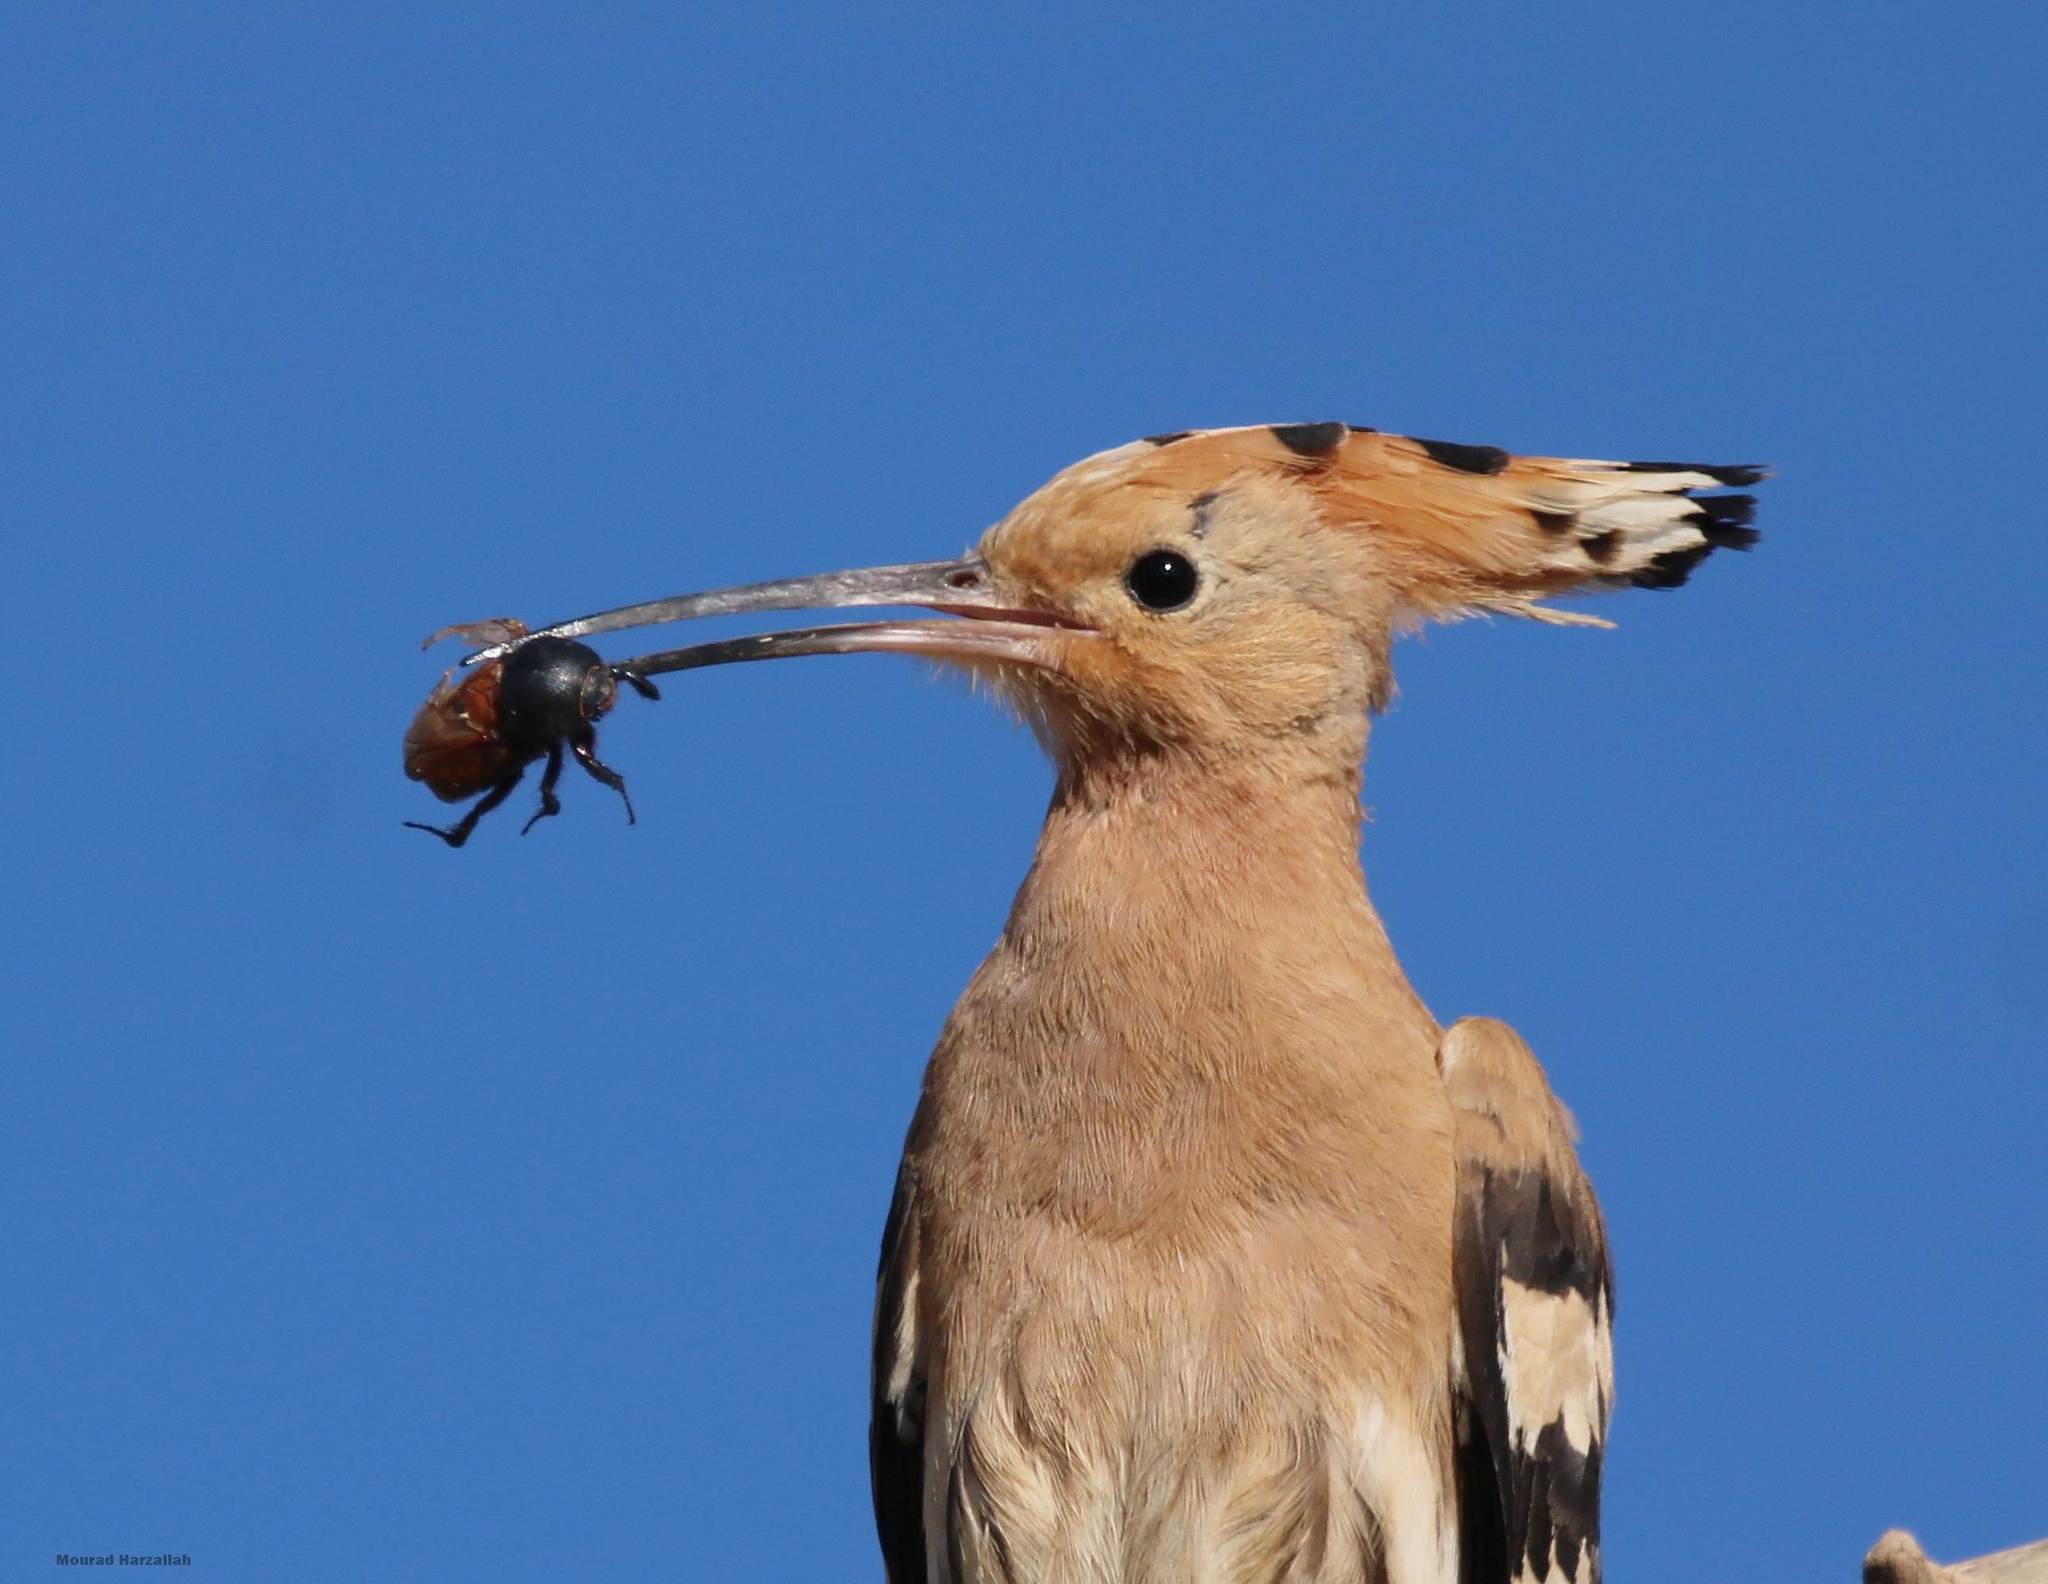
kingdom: Animalia
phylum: Chordata
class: Aves
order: Bucerotiformes
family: Upupidae
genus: Upupa
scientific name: Upupa epops
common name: Eurasian hoopoe
